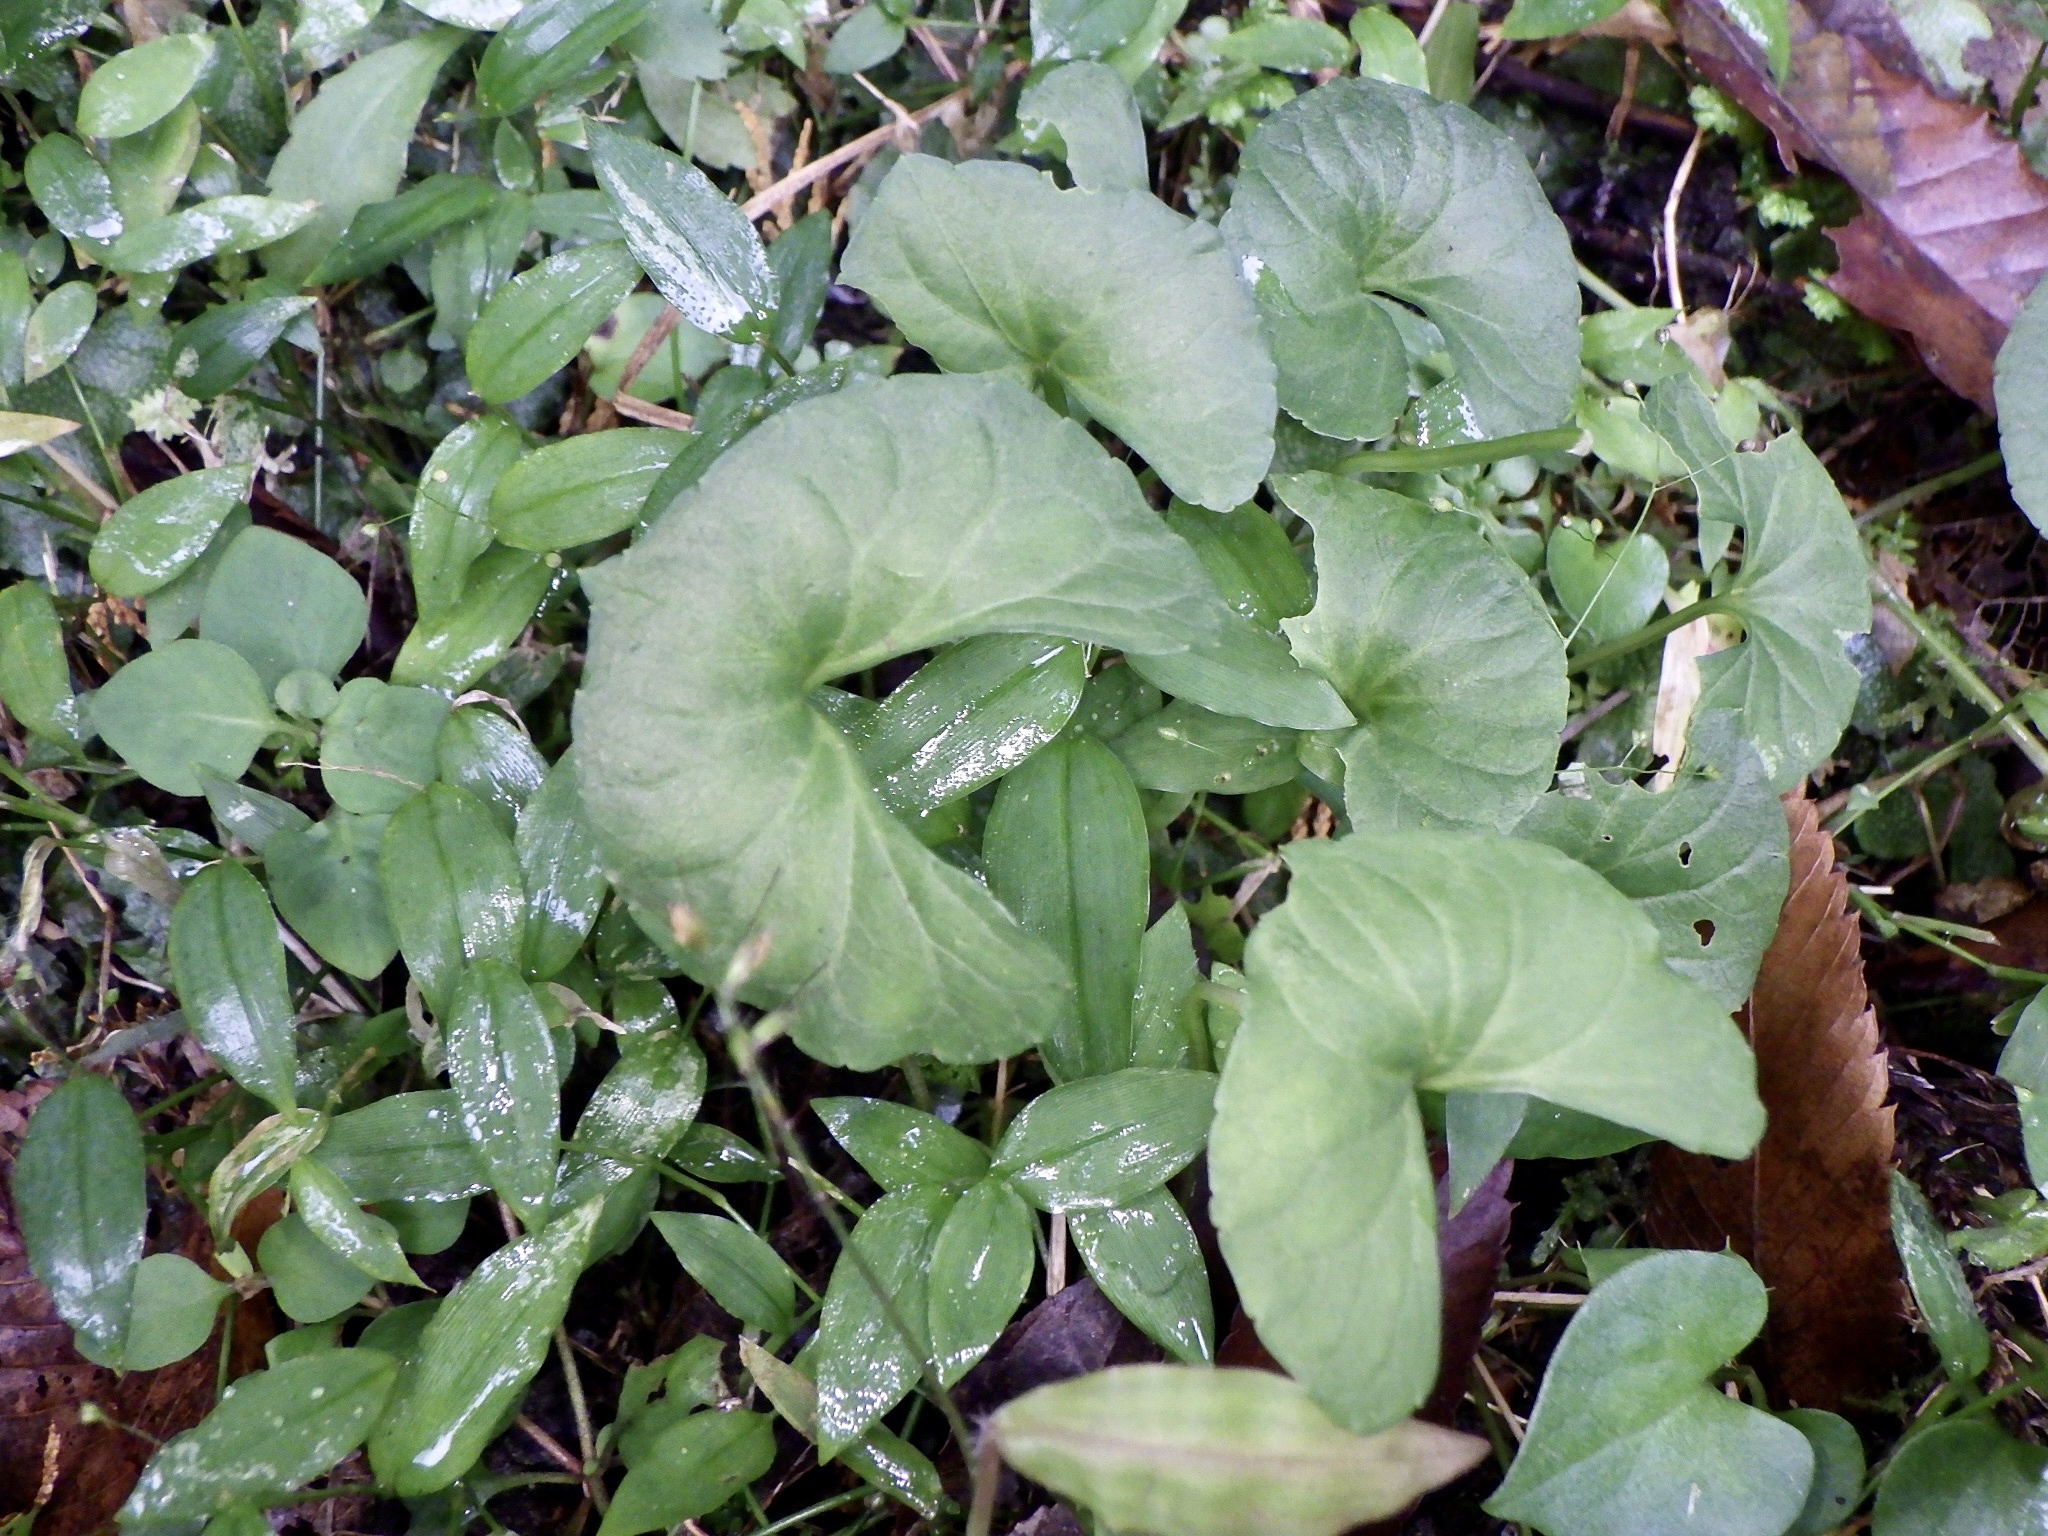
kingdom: Plantae
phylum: Tracheophyta
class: Magnoliopsida
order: Malpighiales
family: Violaceae
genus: Viola
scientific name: Viola hamiltoniana
